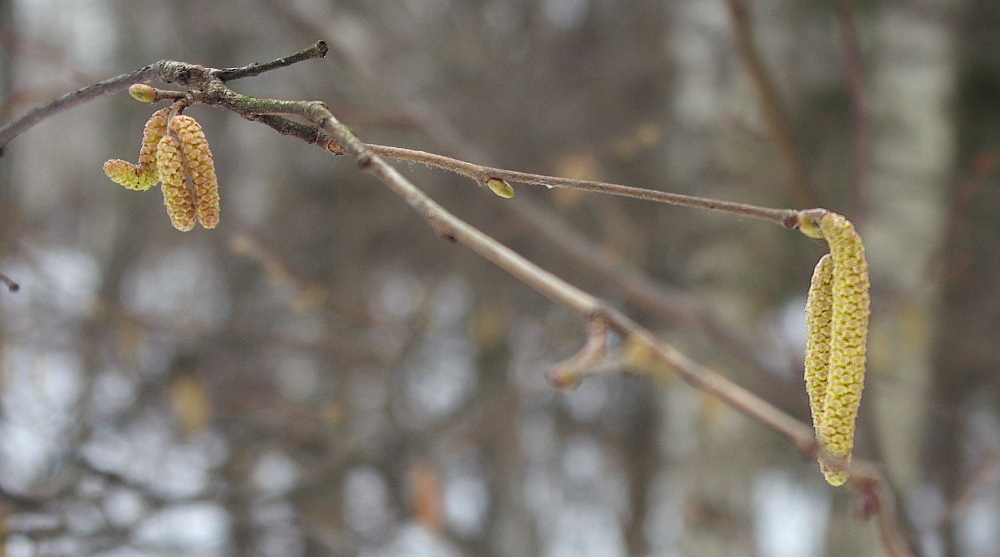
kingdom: Plantae
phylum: Tracheophyta
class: Magnoliopsida
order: Fagales
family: Betulaceae
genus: Corylus
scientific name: Corylus avellana
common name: European hazel
